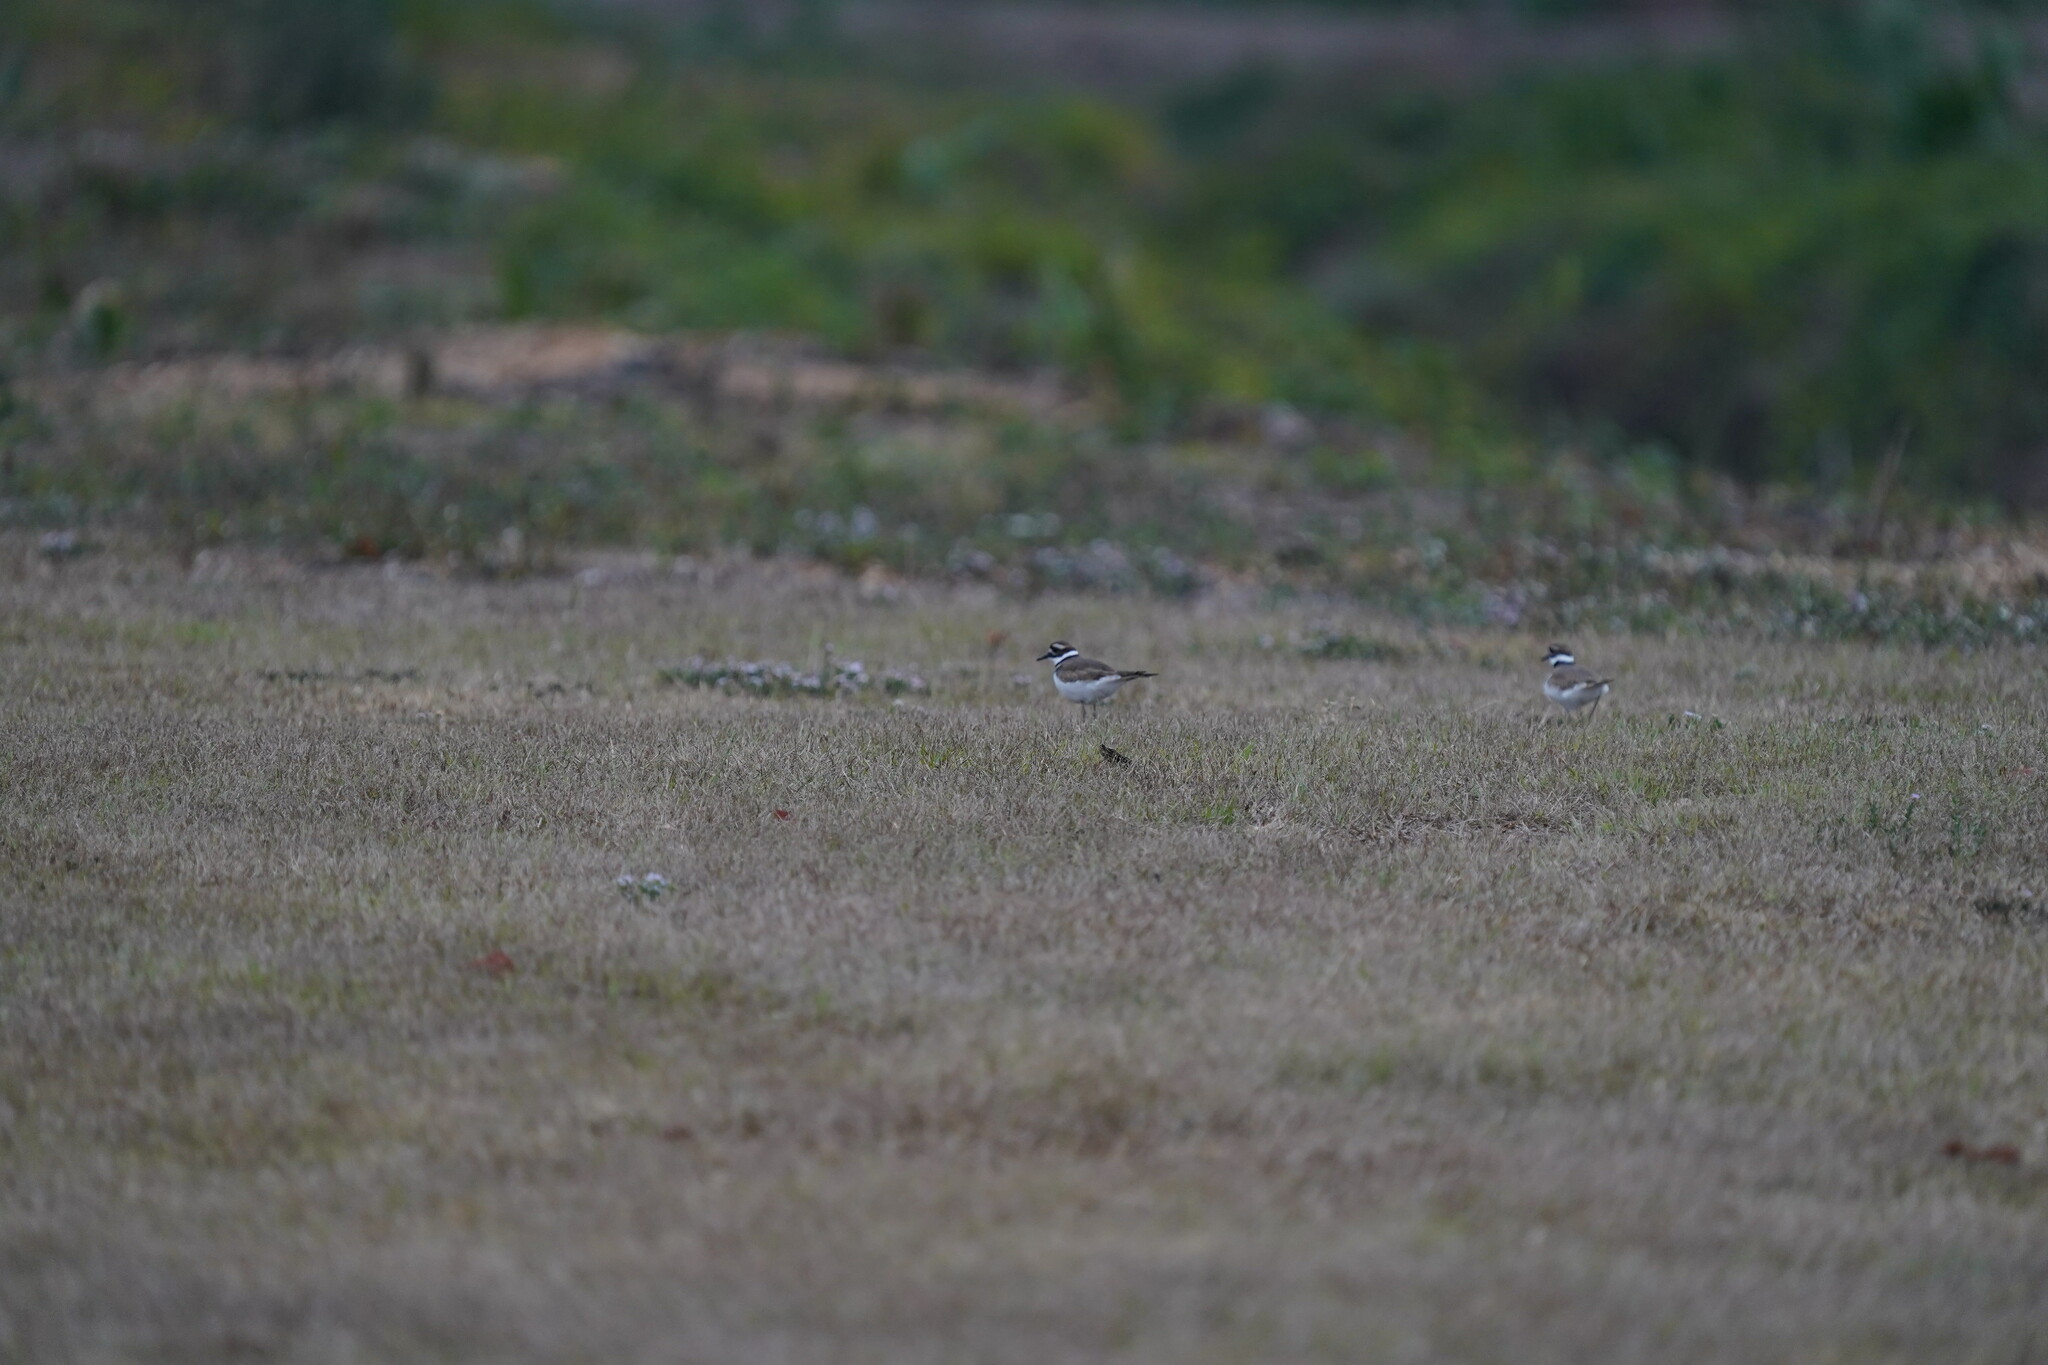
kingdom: Animalia
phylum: Chordata
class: Aves
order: Charadriiformes
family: Charadriidae
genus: Charadrius
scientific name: Charadrius vociferus
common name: Killdeer
